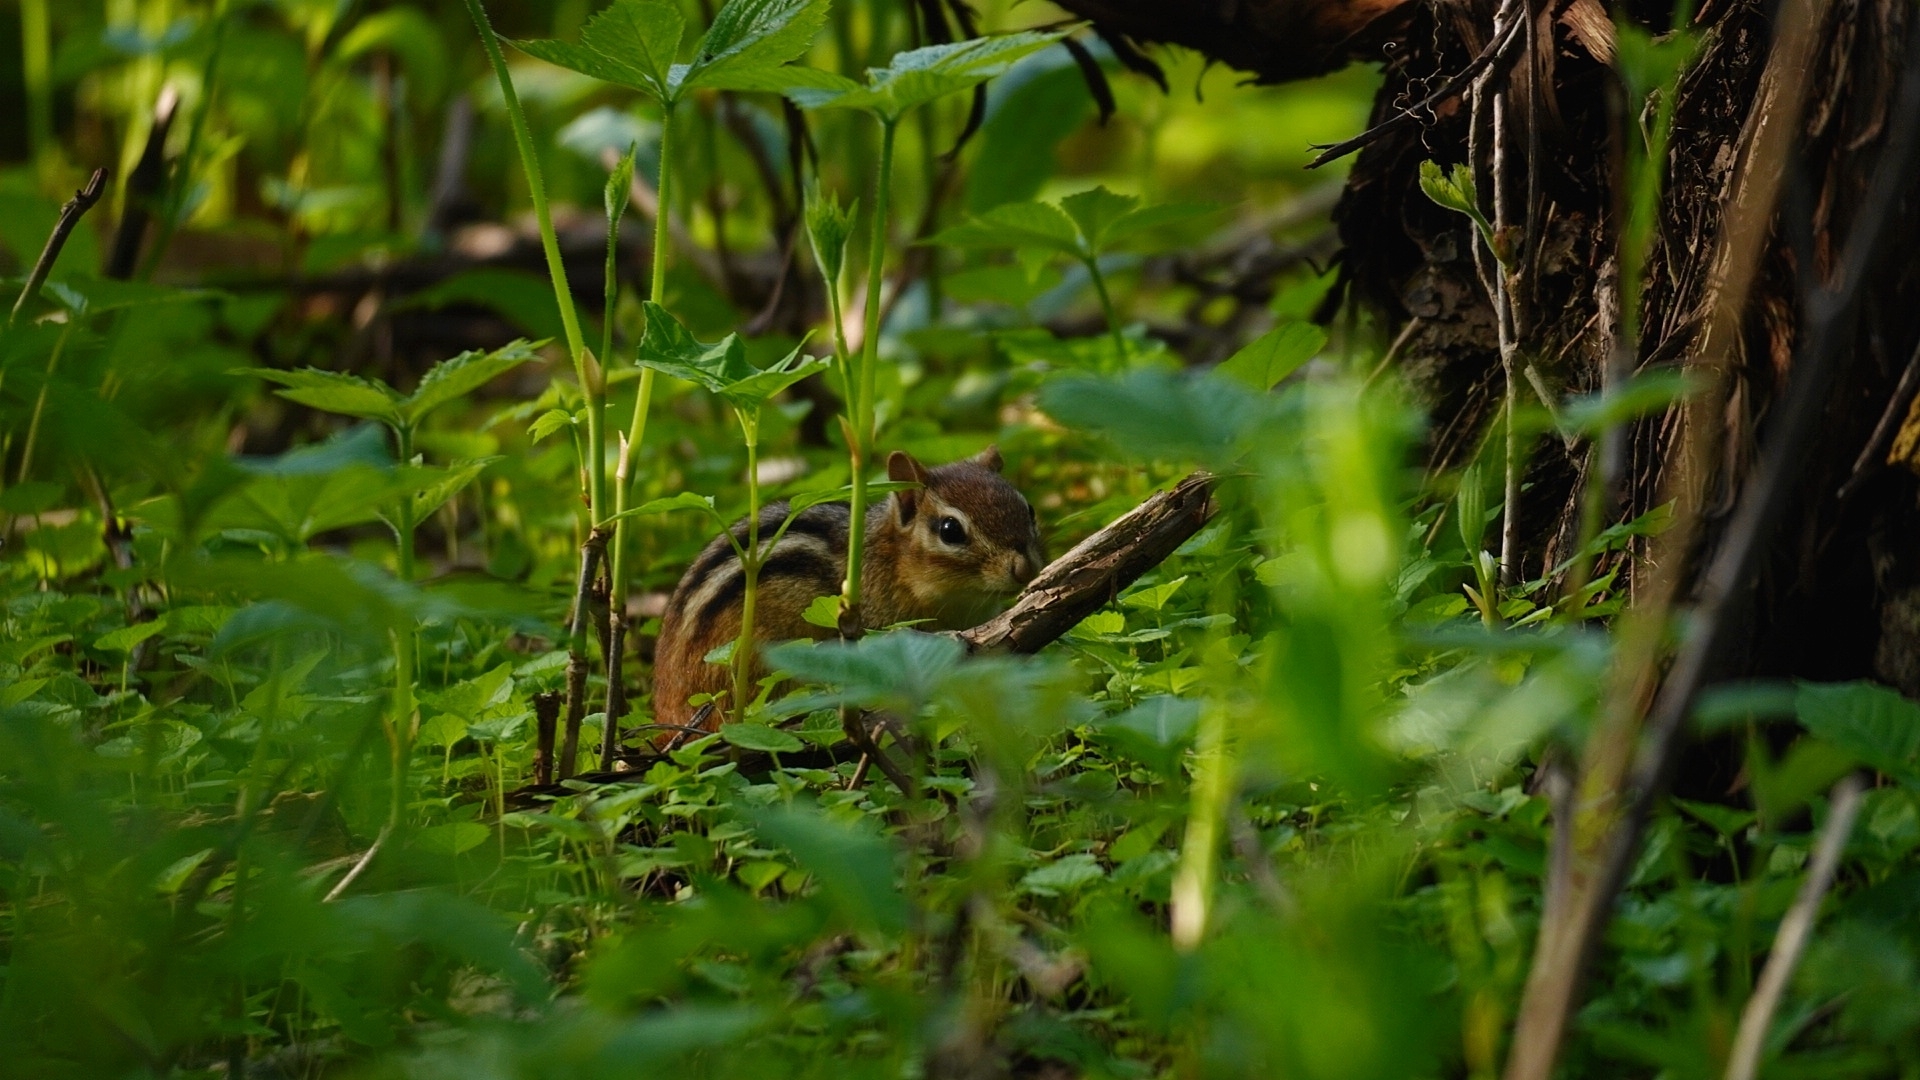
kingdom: Animalia
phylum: Chordata
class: Mammalia
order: Rodentia
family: Sciuridae
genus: Tamias
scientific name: Tamias striatus
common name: Eastern chipmunk
